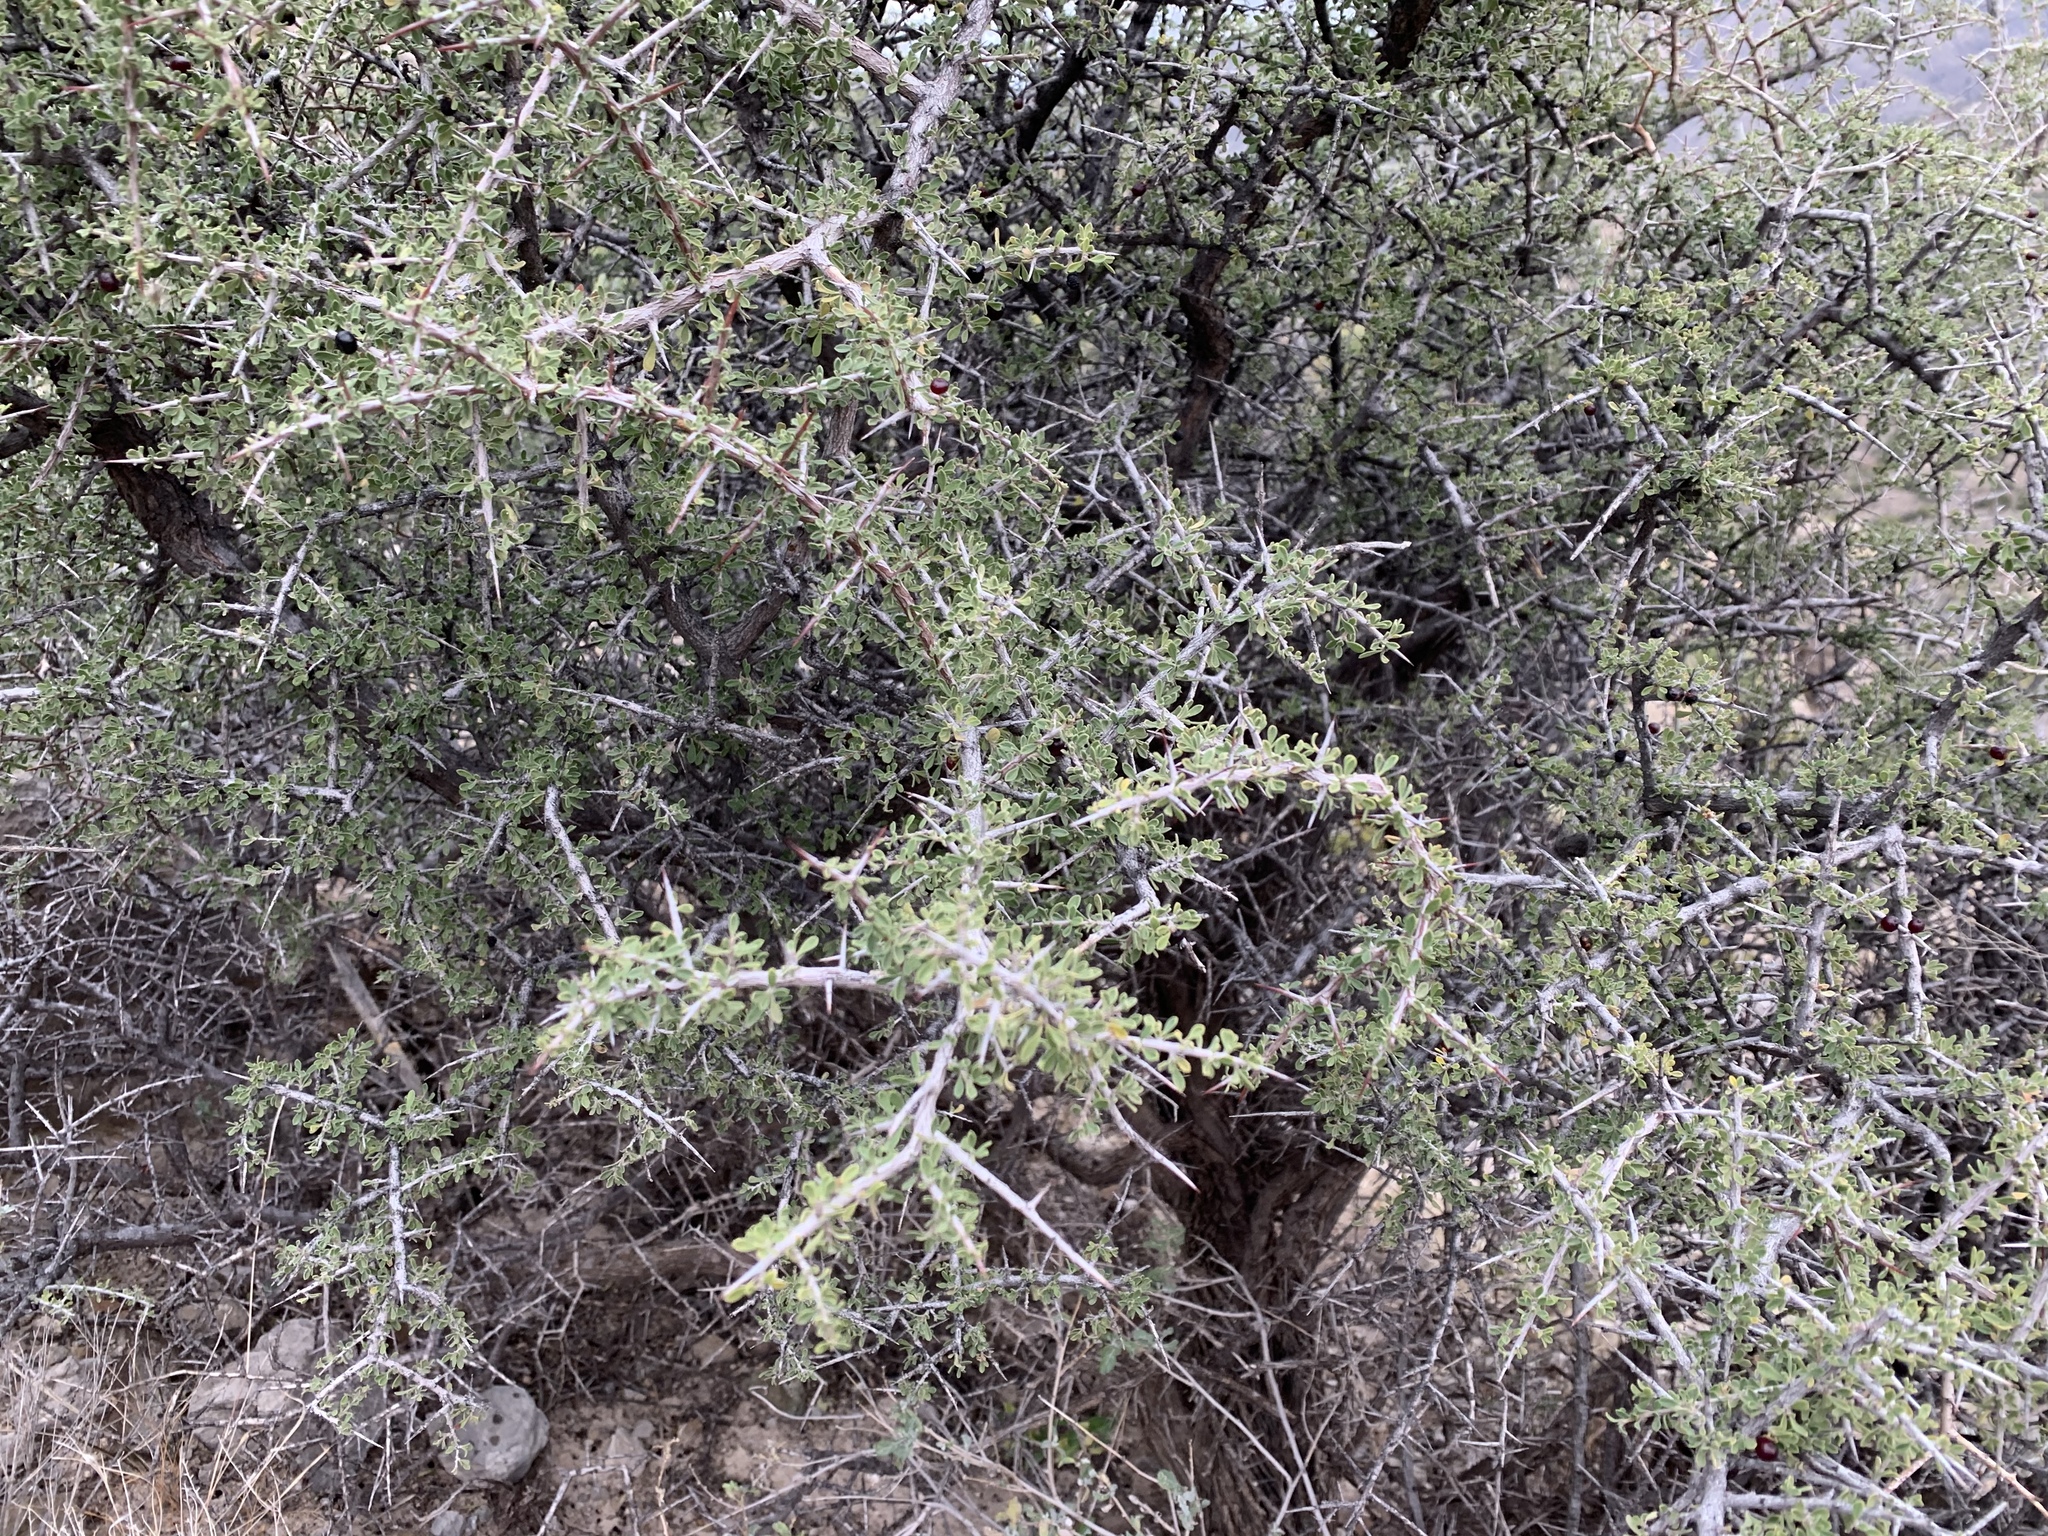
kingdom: Plantae
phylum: Tracheophyta
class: Magnoliopsida
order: Rosales
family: Rhamnaceae
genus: Condalia
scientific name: Condalia warnockii
